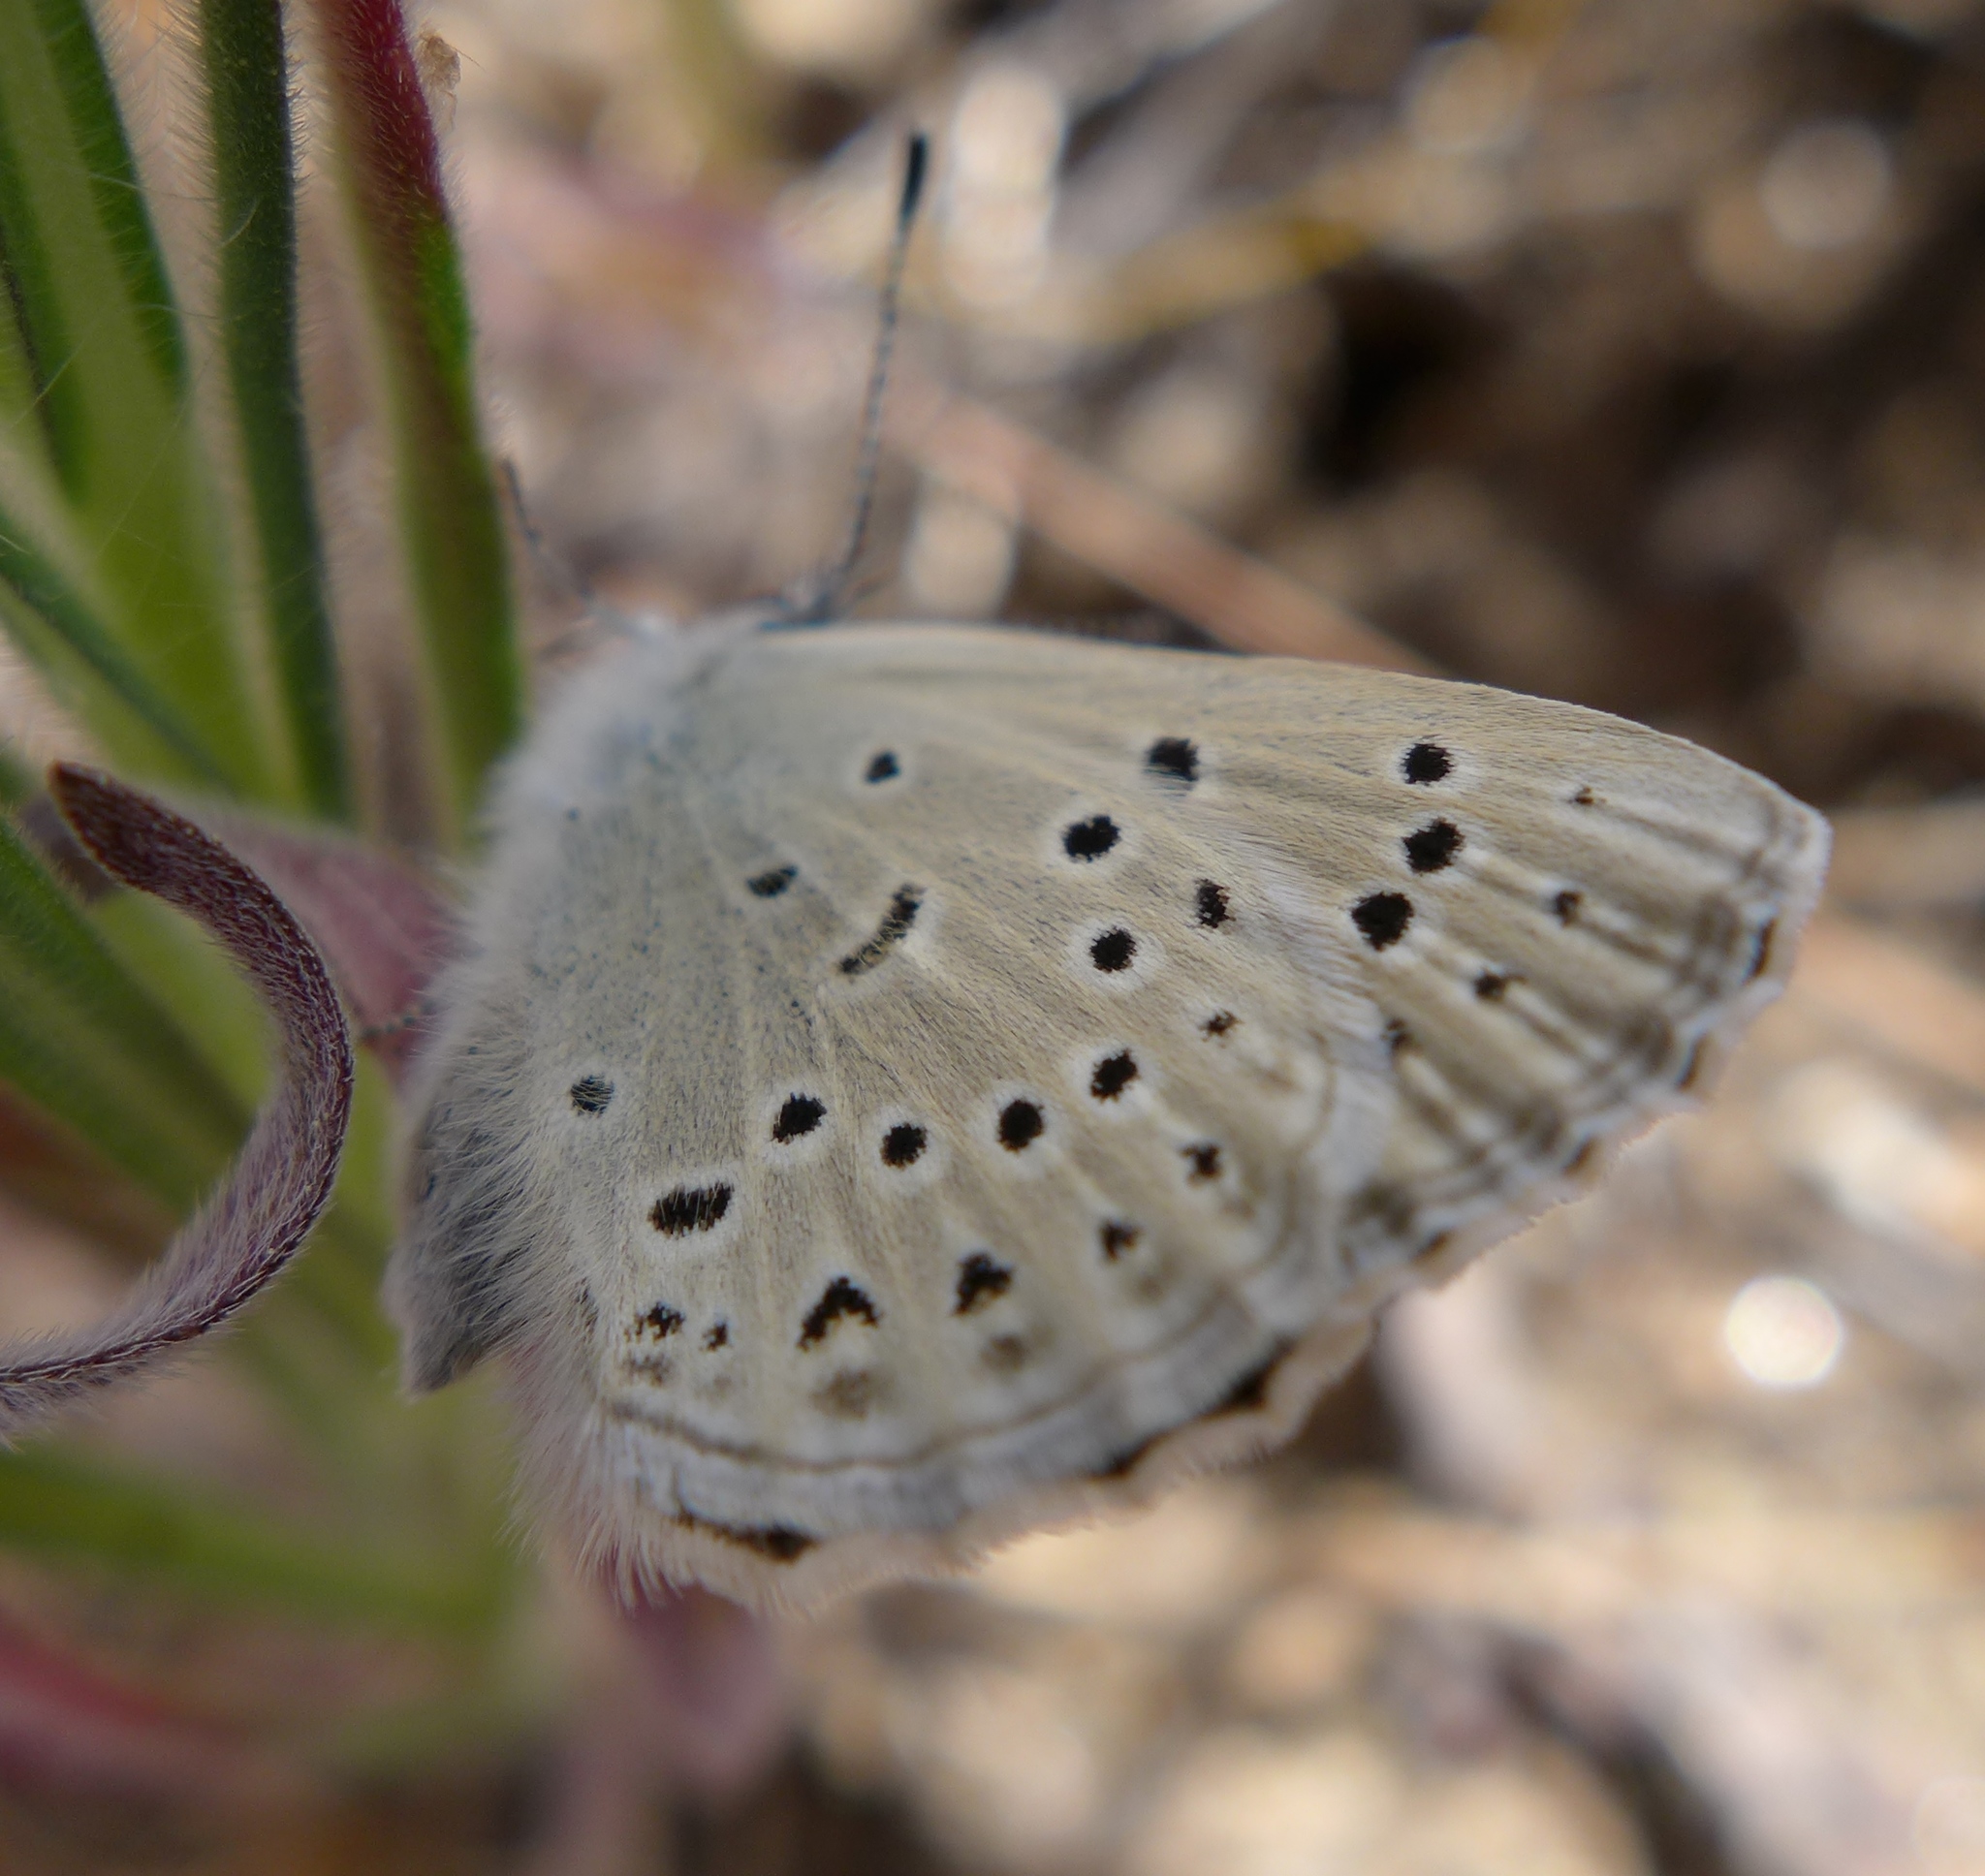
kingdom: Animalia
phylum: Arthropoda
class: Insecta
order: Lepidoptera
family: Lycaenidae
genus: Icaricia
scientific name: Icaricia icarioides
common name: Boisduval's blue
